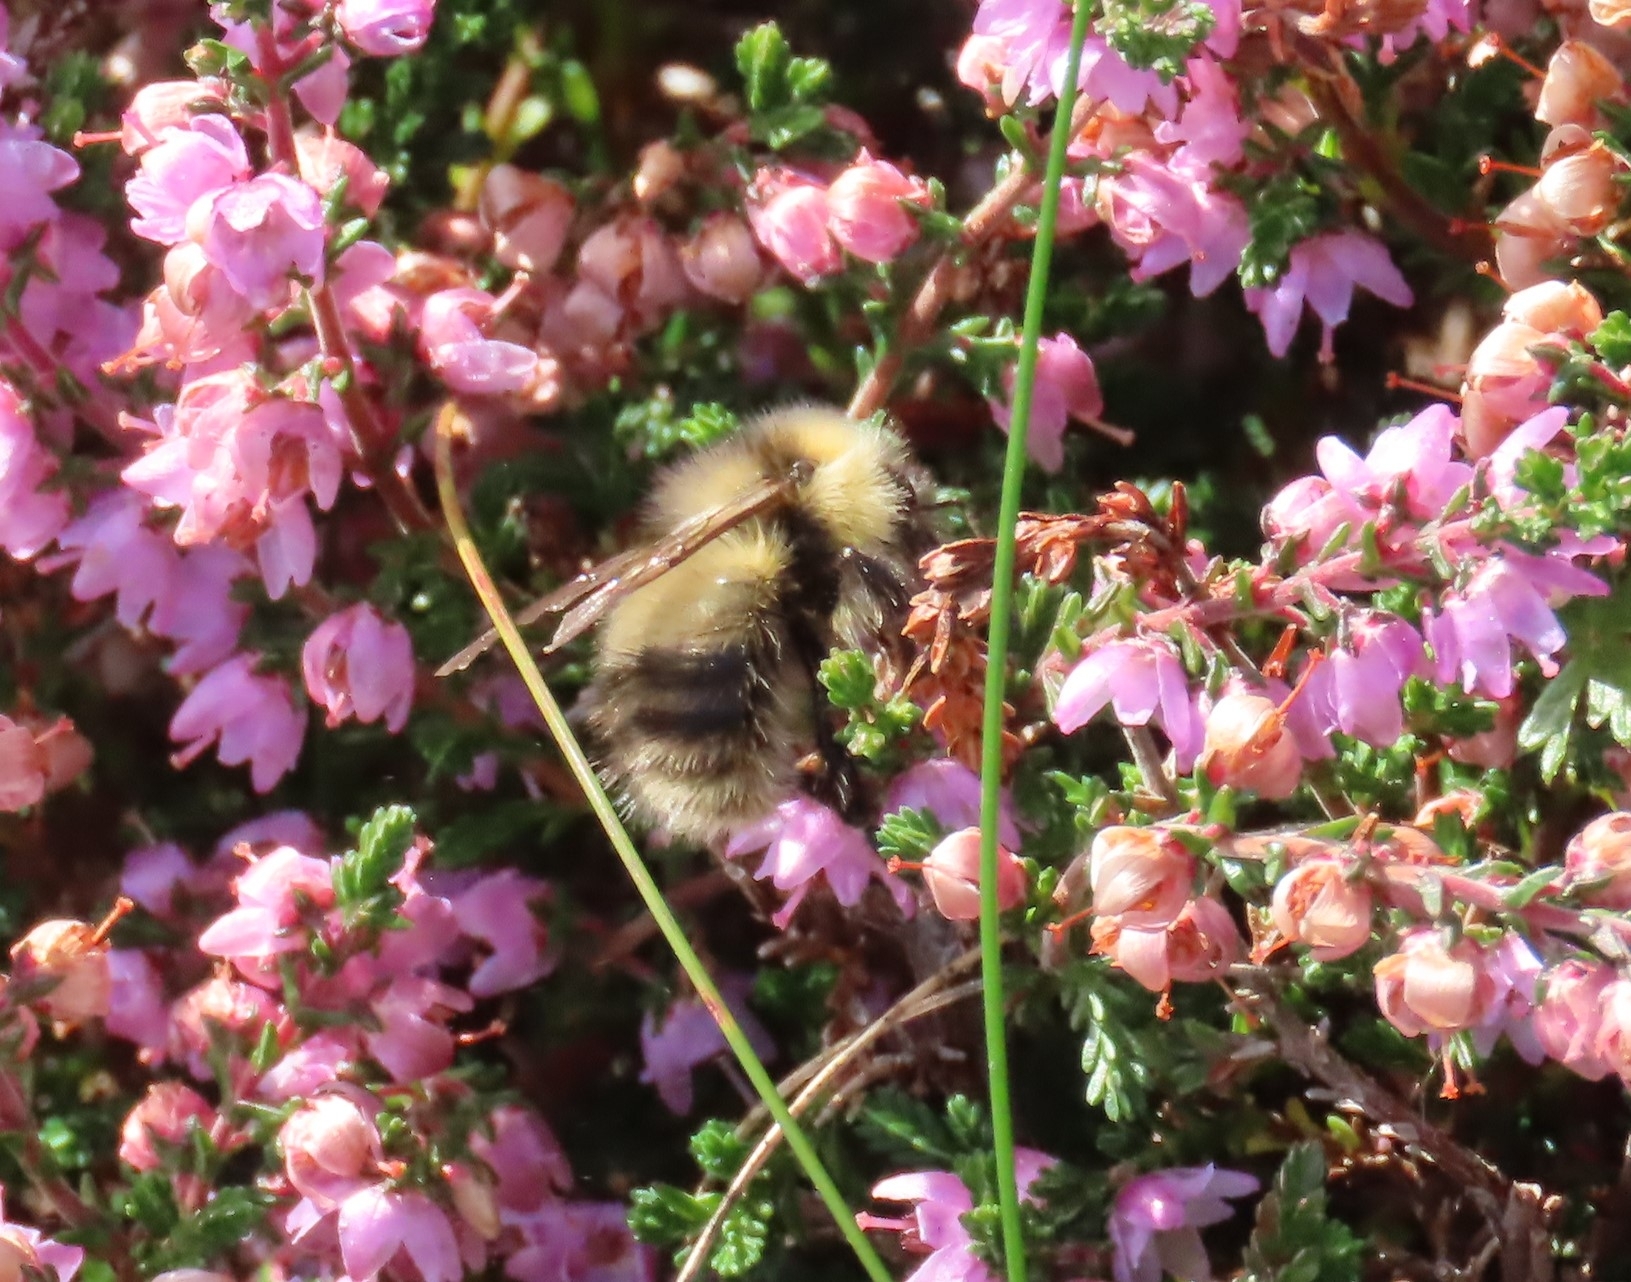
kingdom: Animalia
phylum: Arthropoda
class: Insecta
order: Hymenoptera
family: Apidae
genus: Bombus
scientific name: Bombus jonellus
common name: Heath humble-bee
